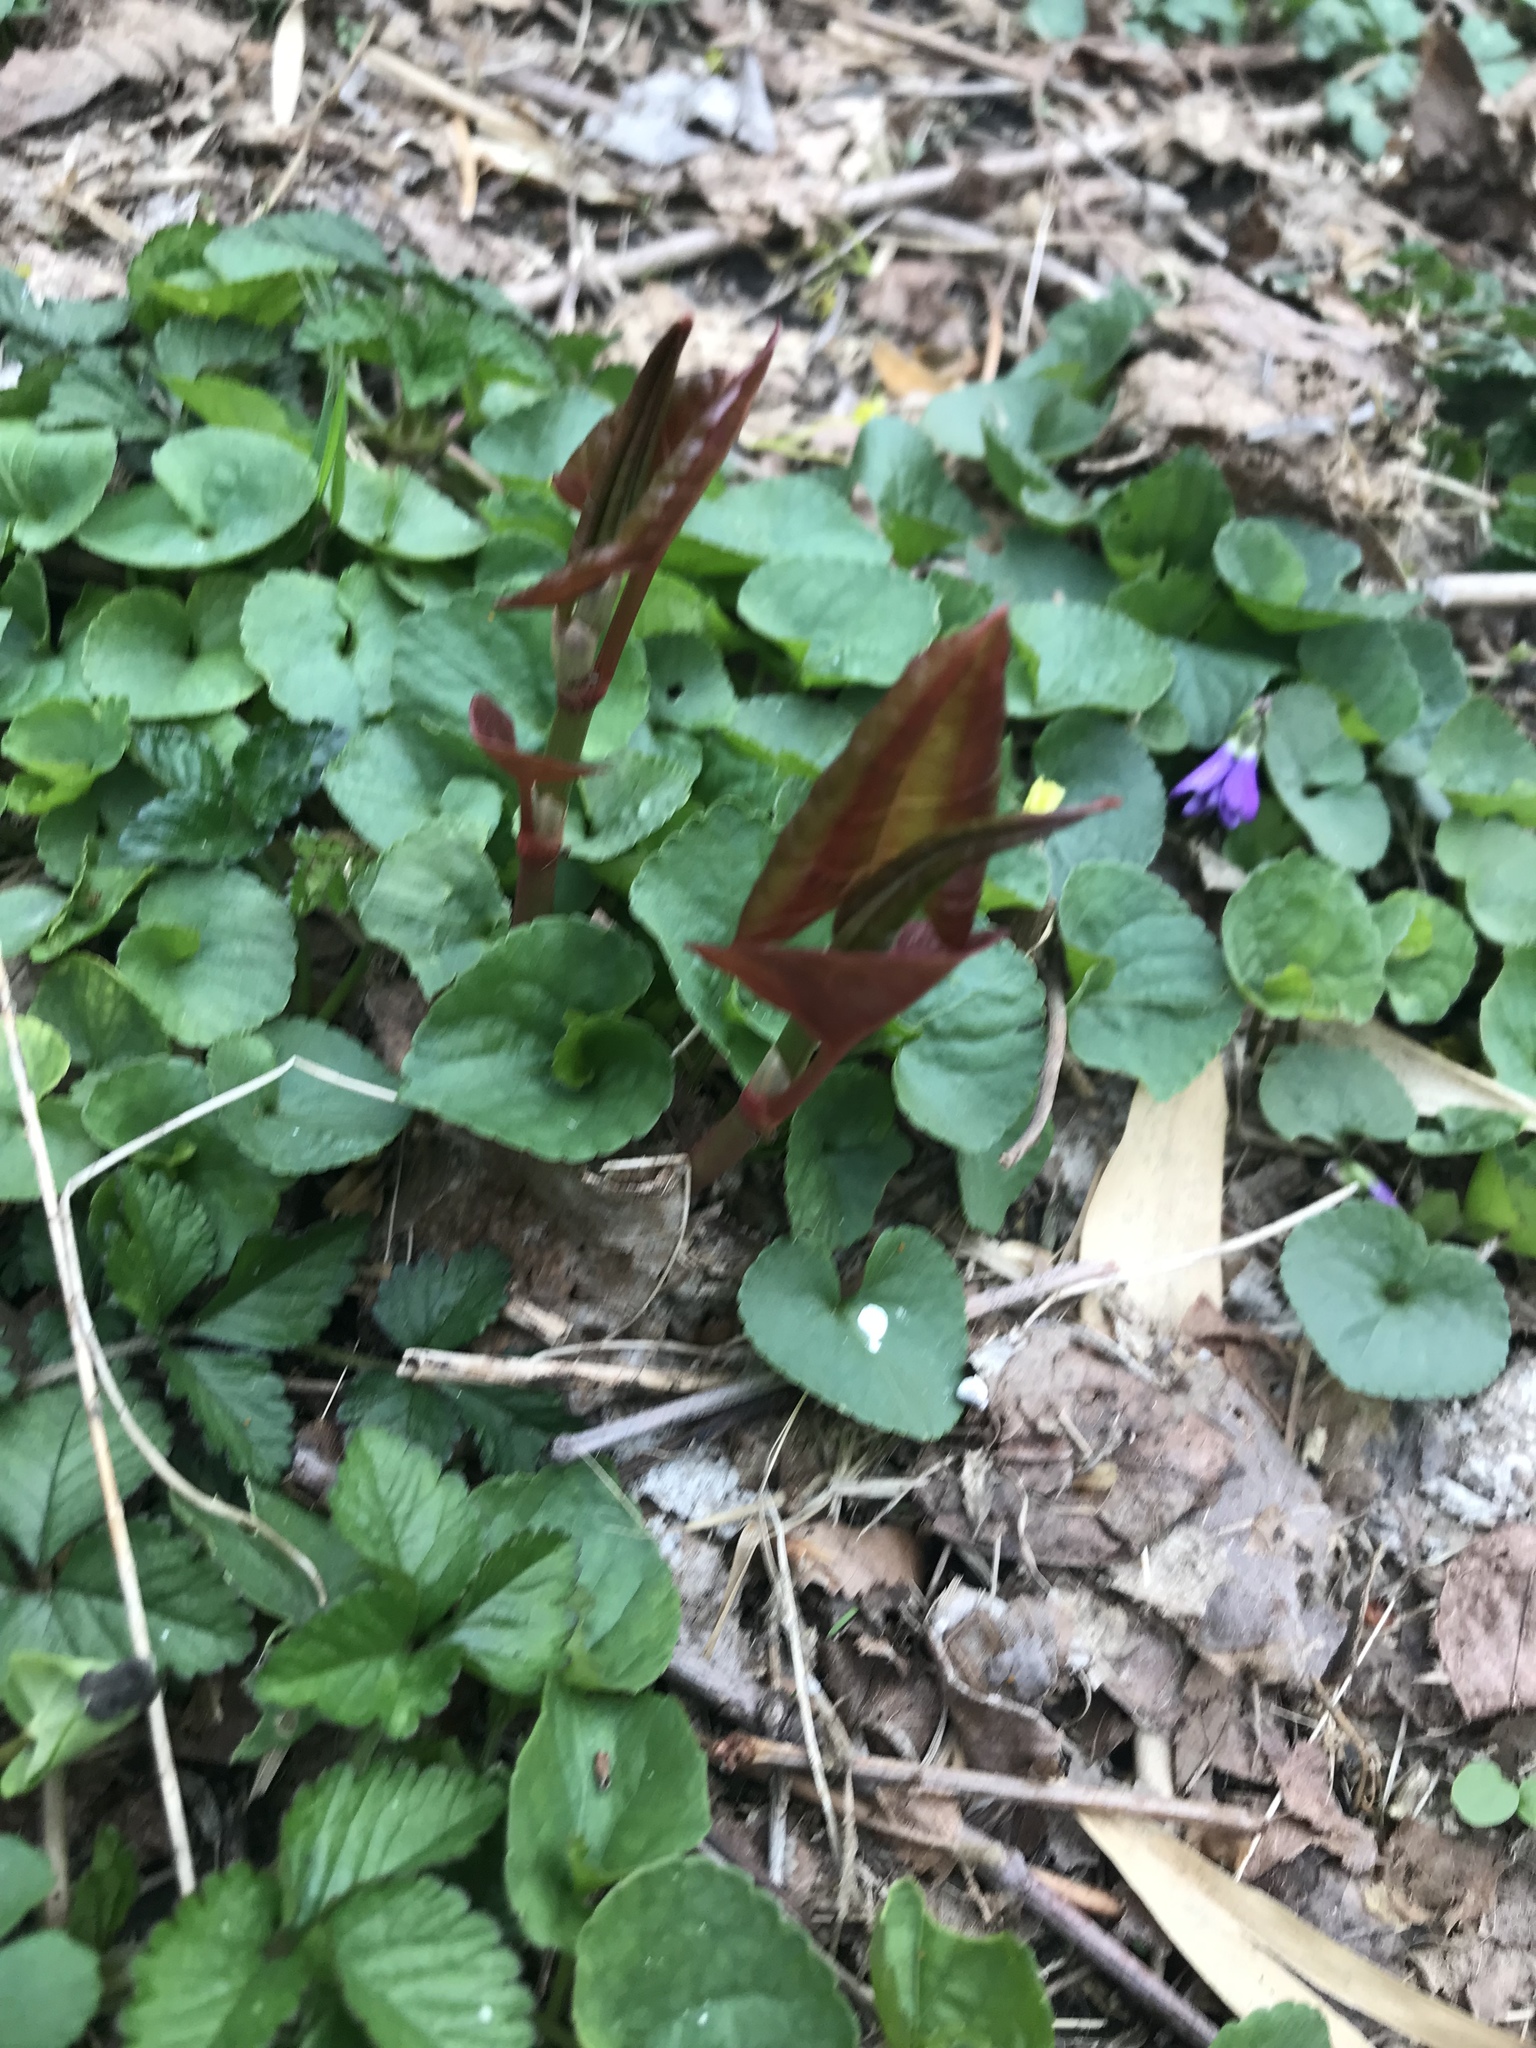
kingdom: Plantae
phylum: Tracheophyta
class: Magnoliopsida
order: Caryophyllales
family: Polygonaceae
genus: Reynoutria
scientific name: Reynoutria japonica
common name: Japanese knotweed
